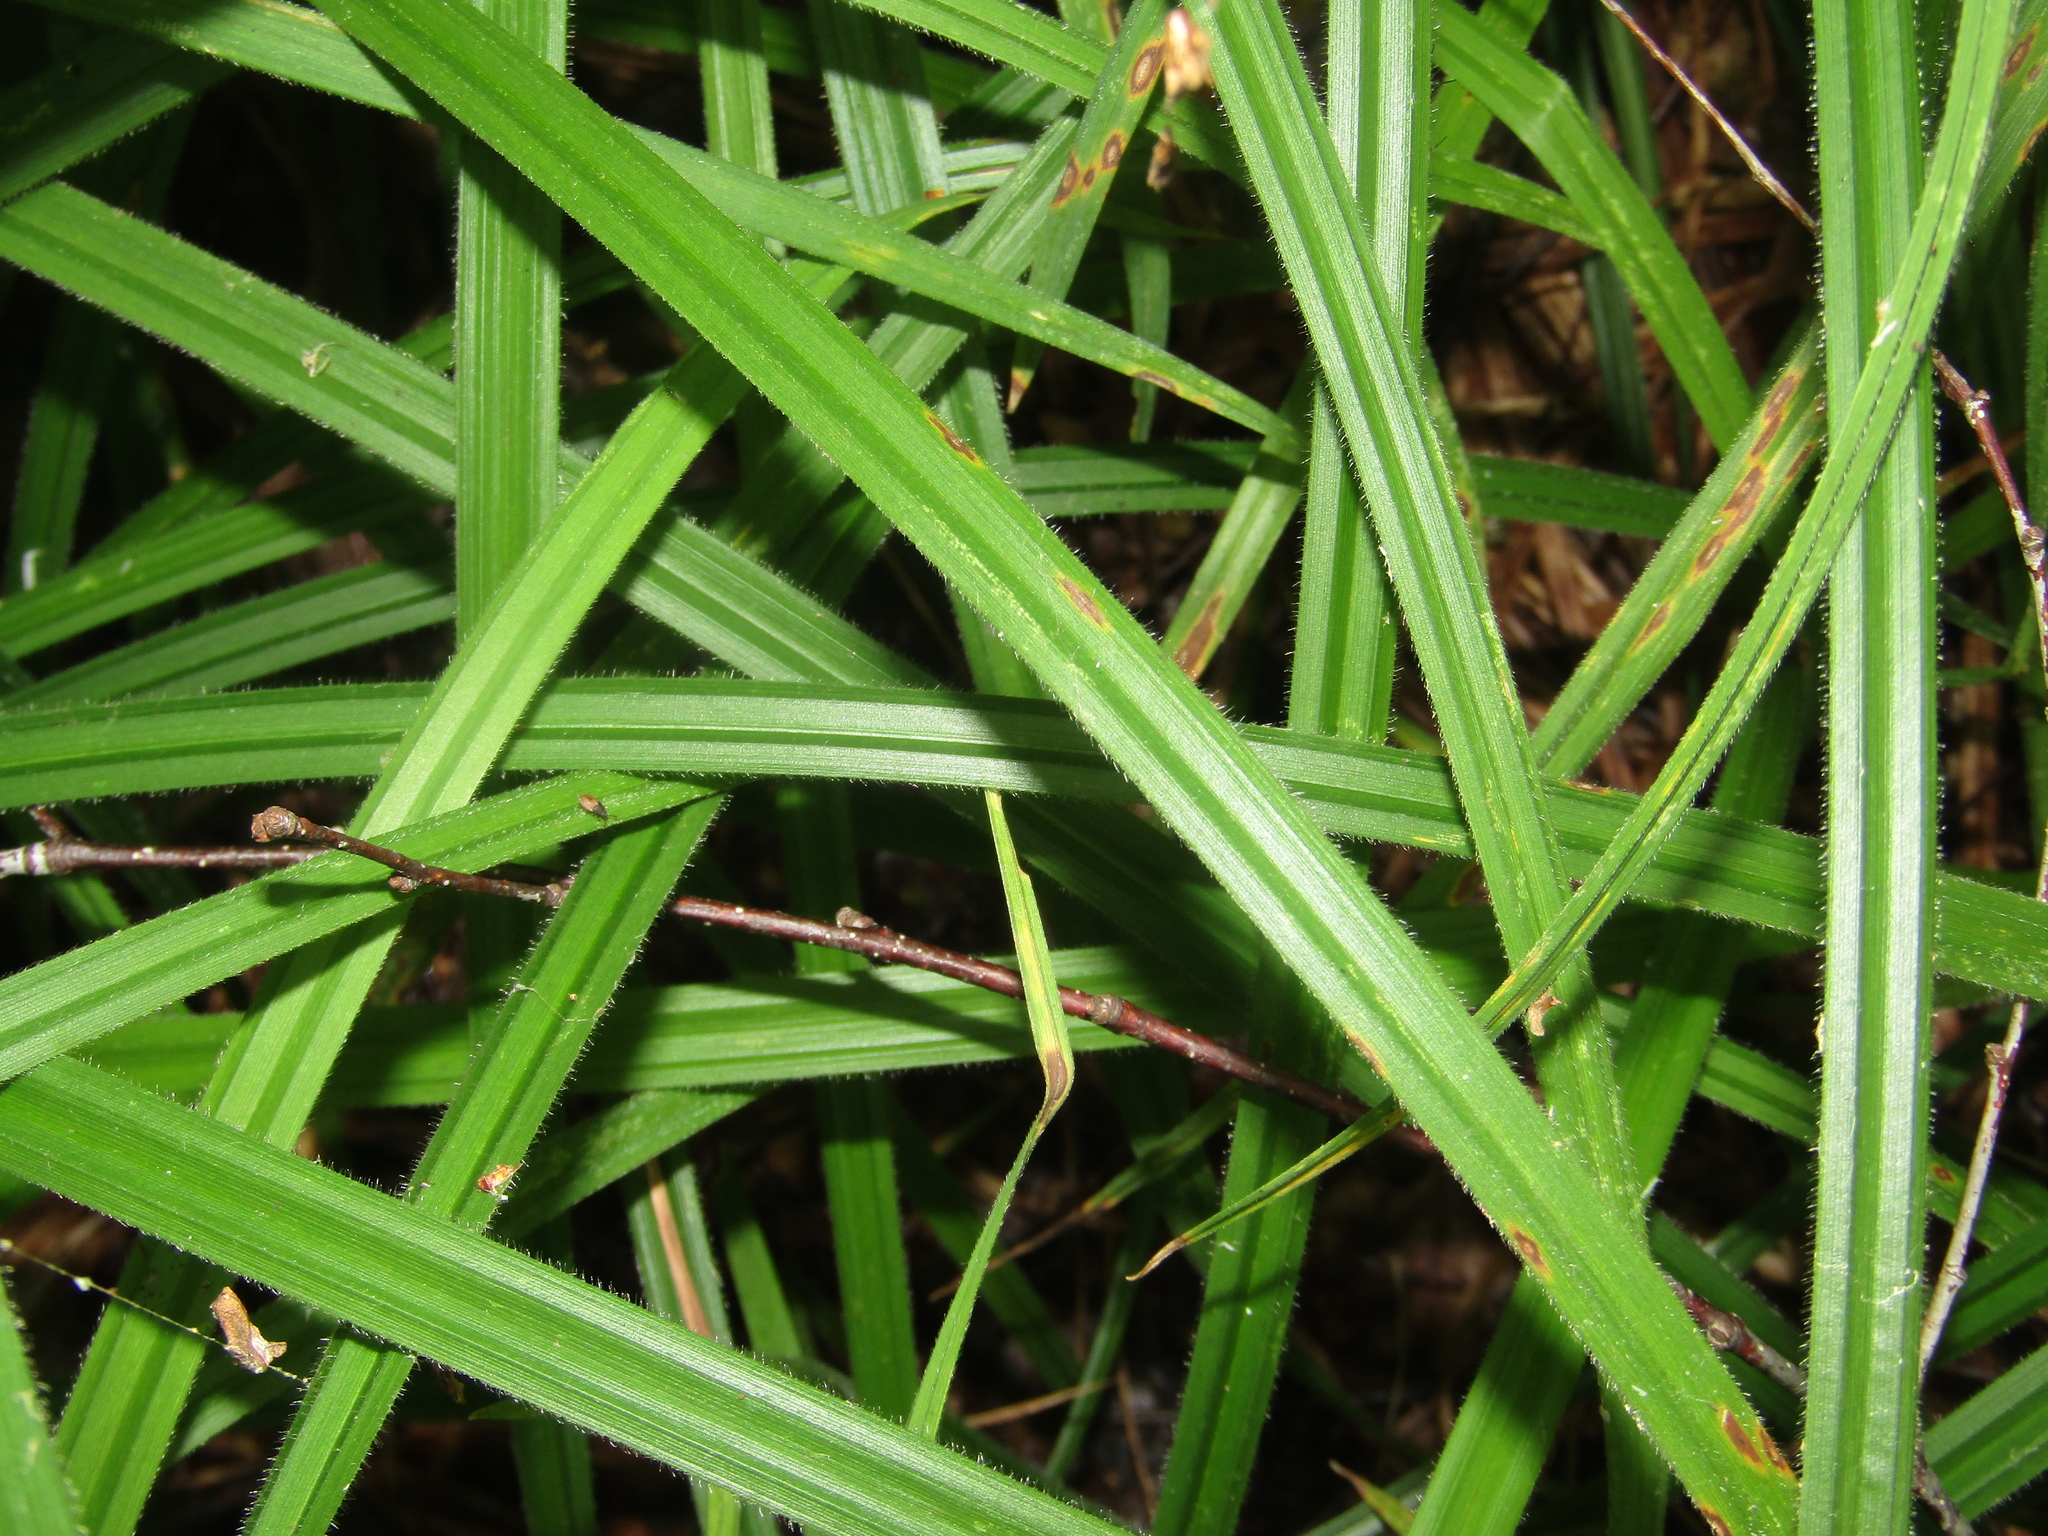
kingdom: Plantae
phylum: Tracheophyta
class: Liliopsida
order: Poales
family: Cyperaceae
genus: Carex
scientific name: Carex pilosa
